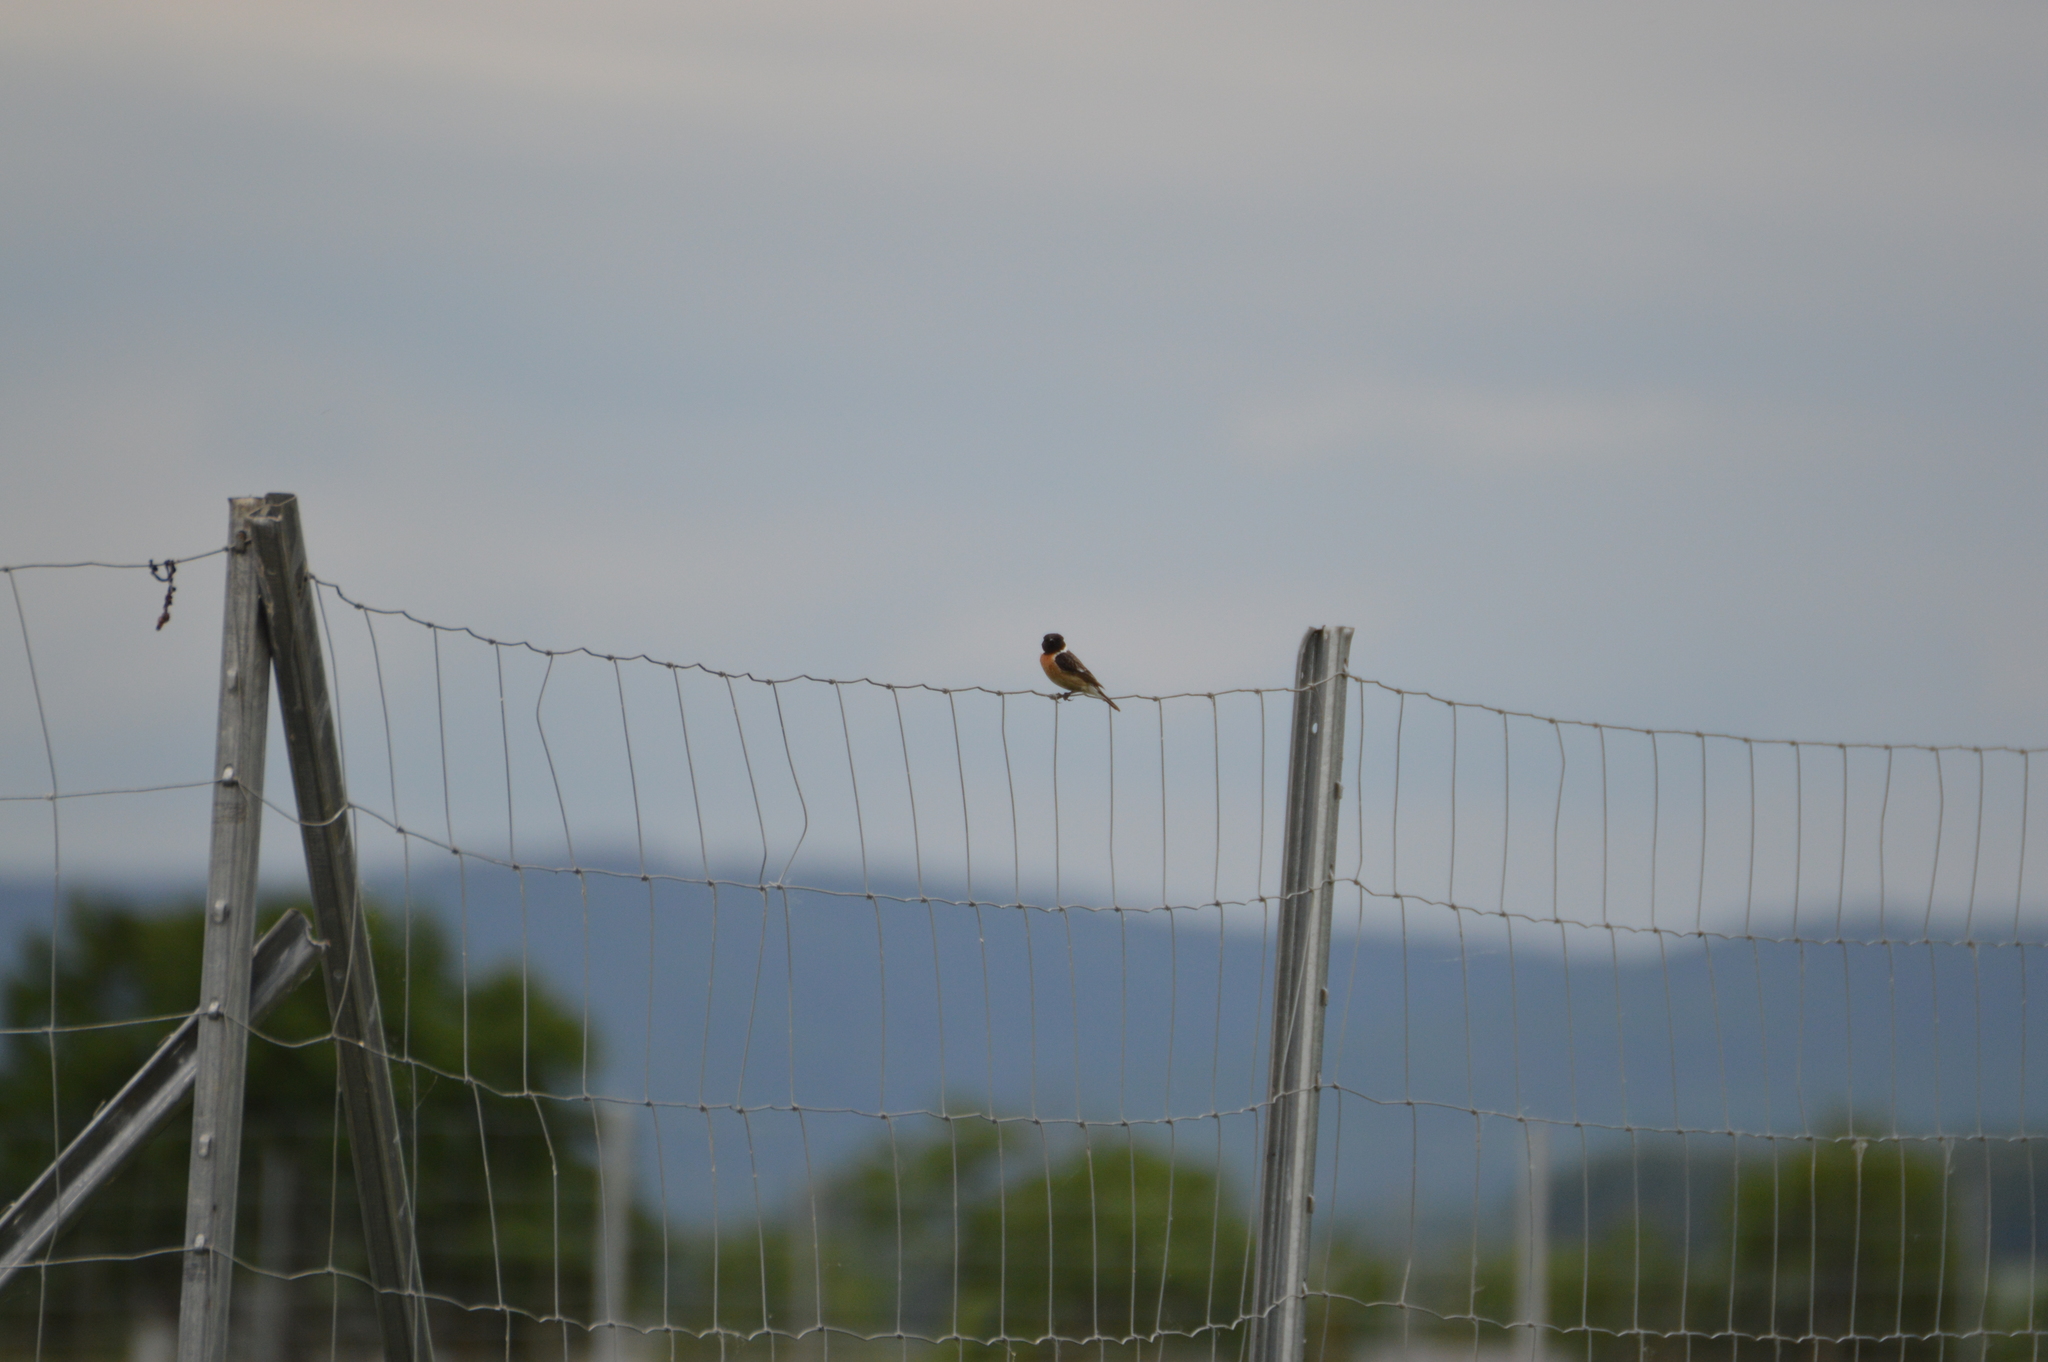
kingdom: Animalia
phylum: Chordata
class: Aves
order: Passeriformes
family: Muscicapidae
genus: Saxicola
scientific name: Saxicola rubicola
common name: European stonechat
